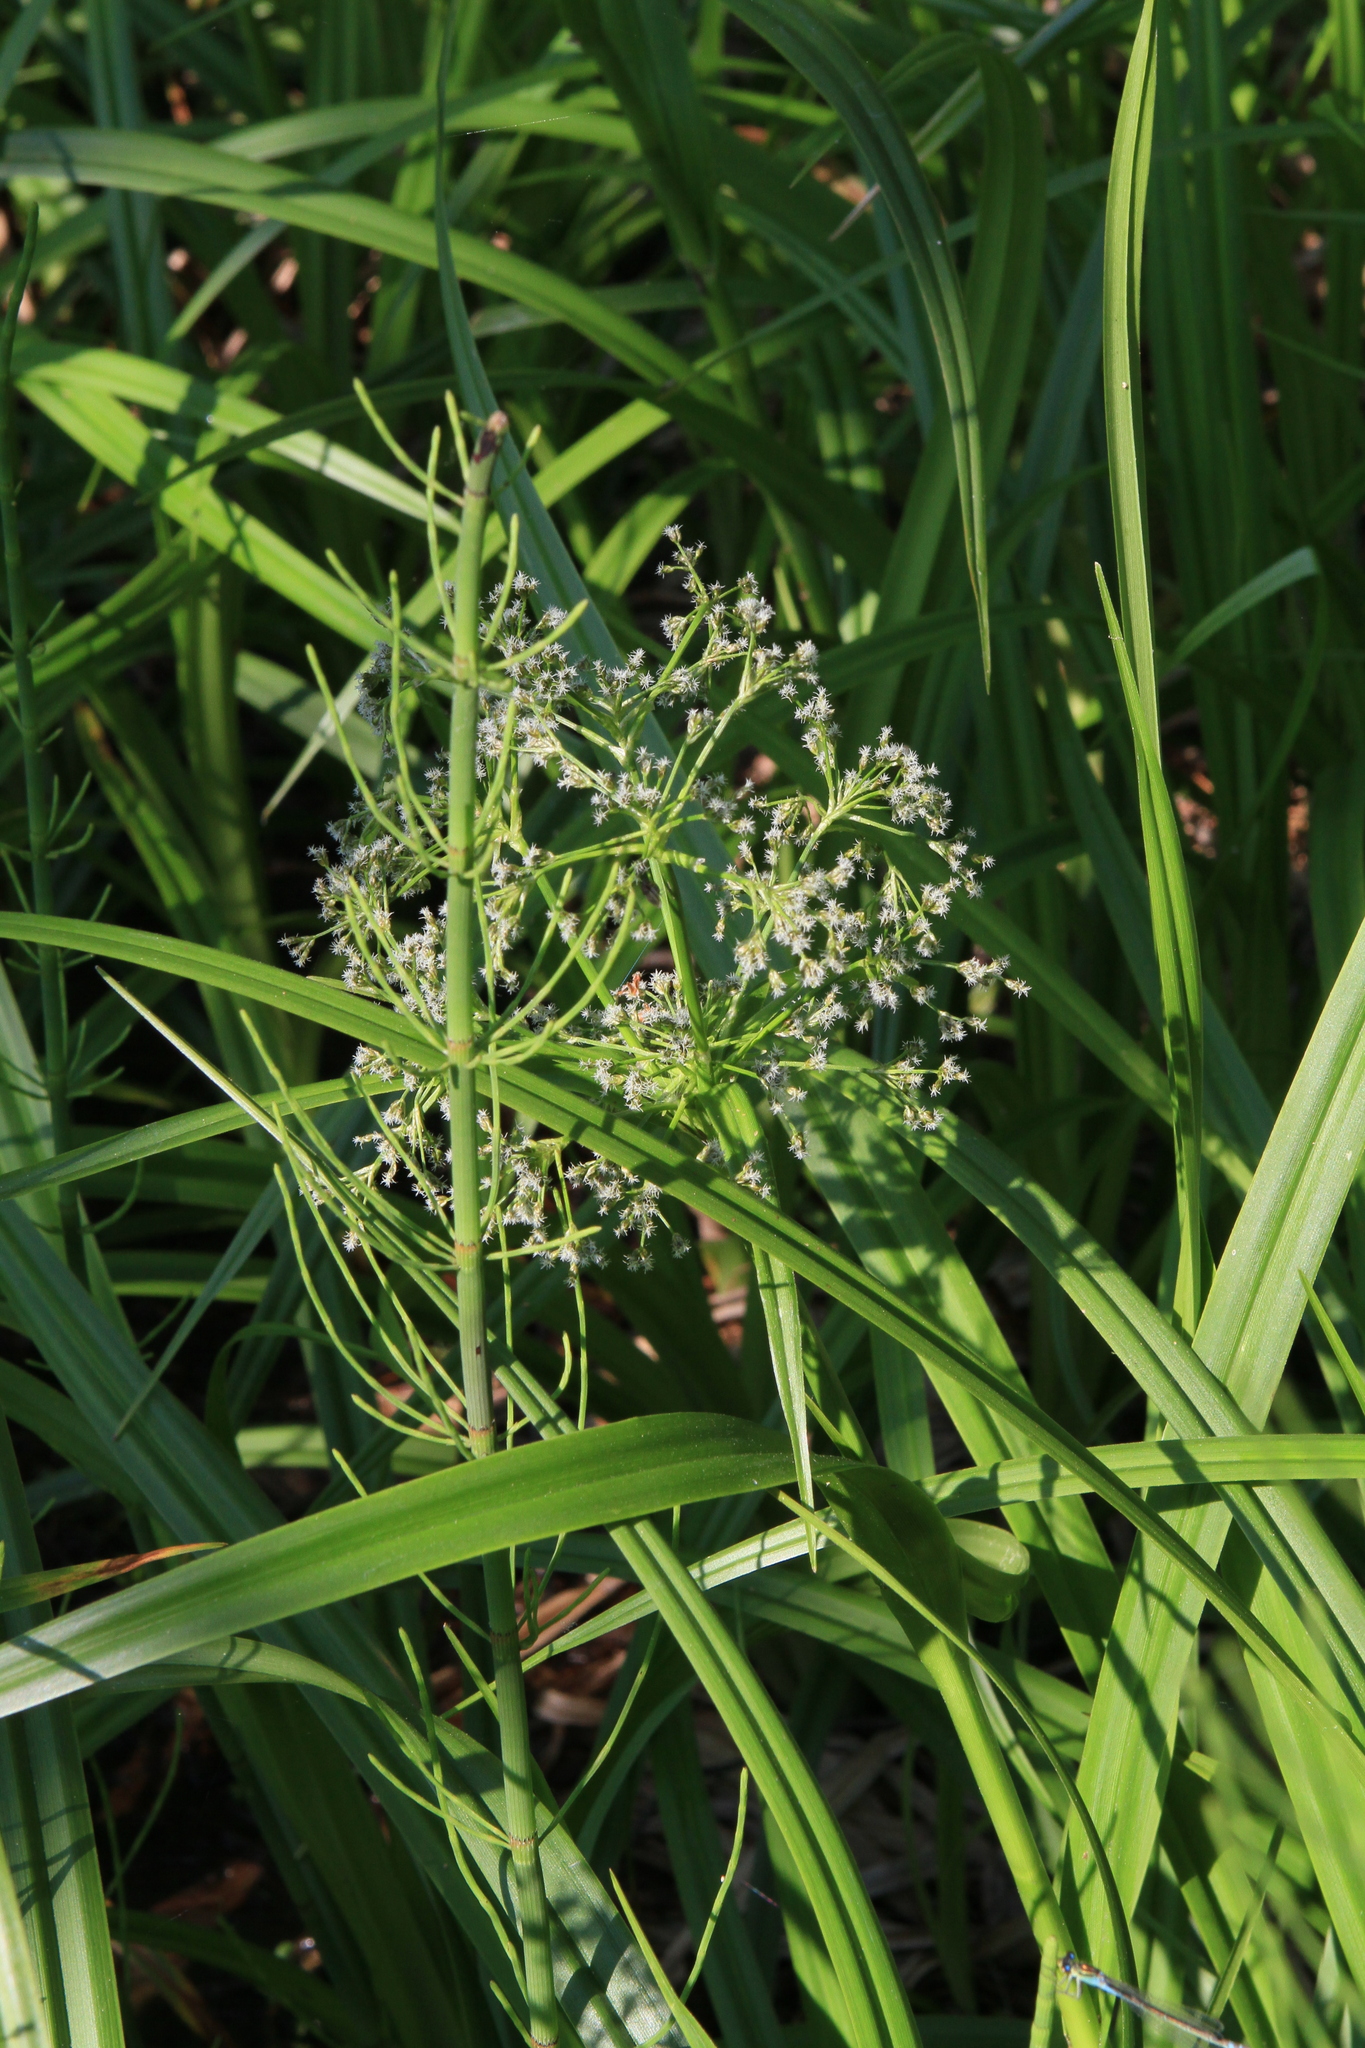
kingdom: Plantae
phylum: Tracheophyta
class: Liliopsida
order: Poales
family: Cyperaceae
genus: Scirpus
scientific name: Scirpus sylvaticus
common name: Wood club-rush
